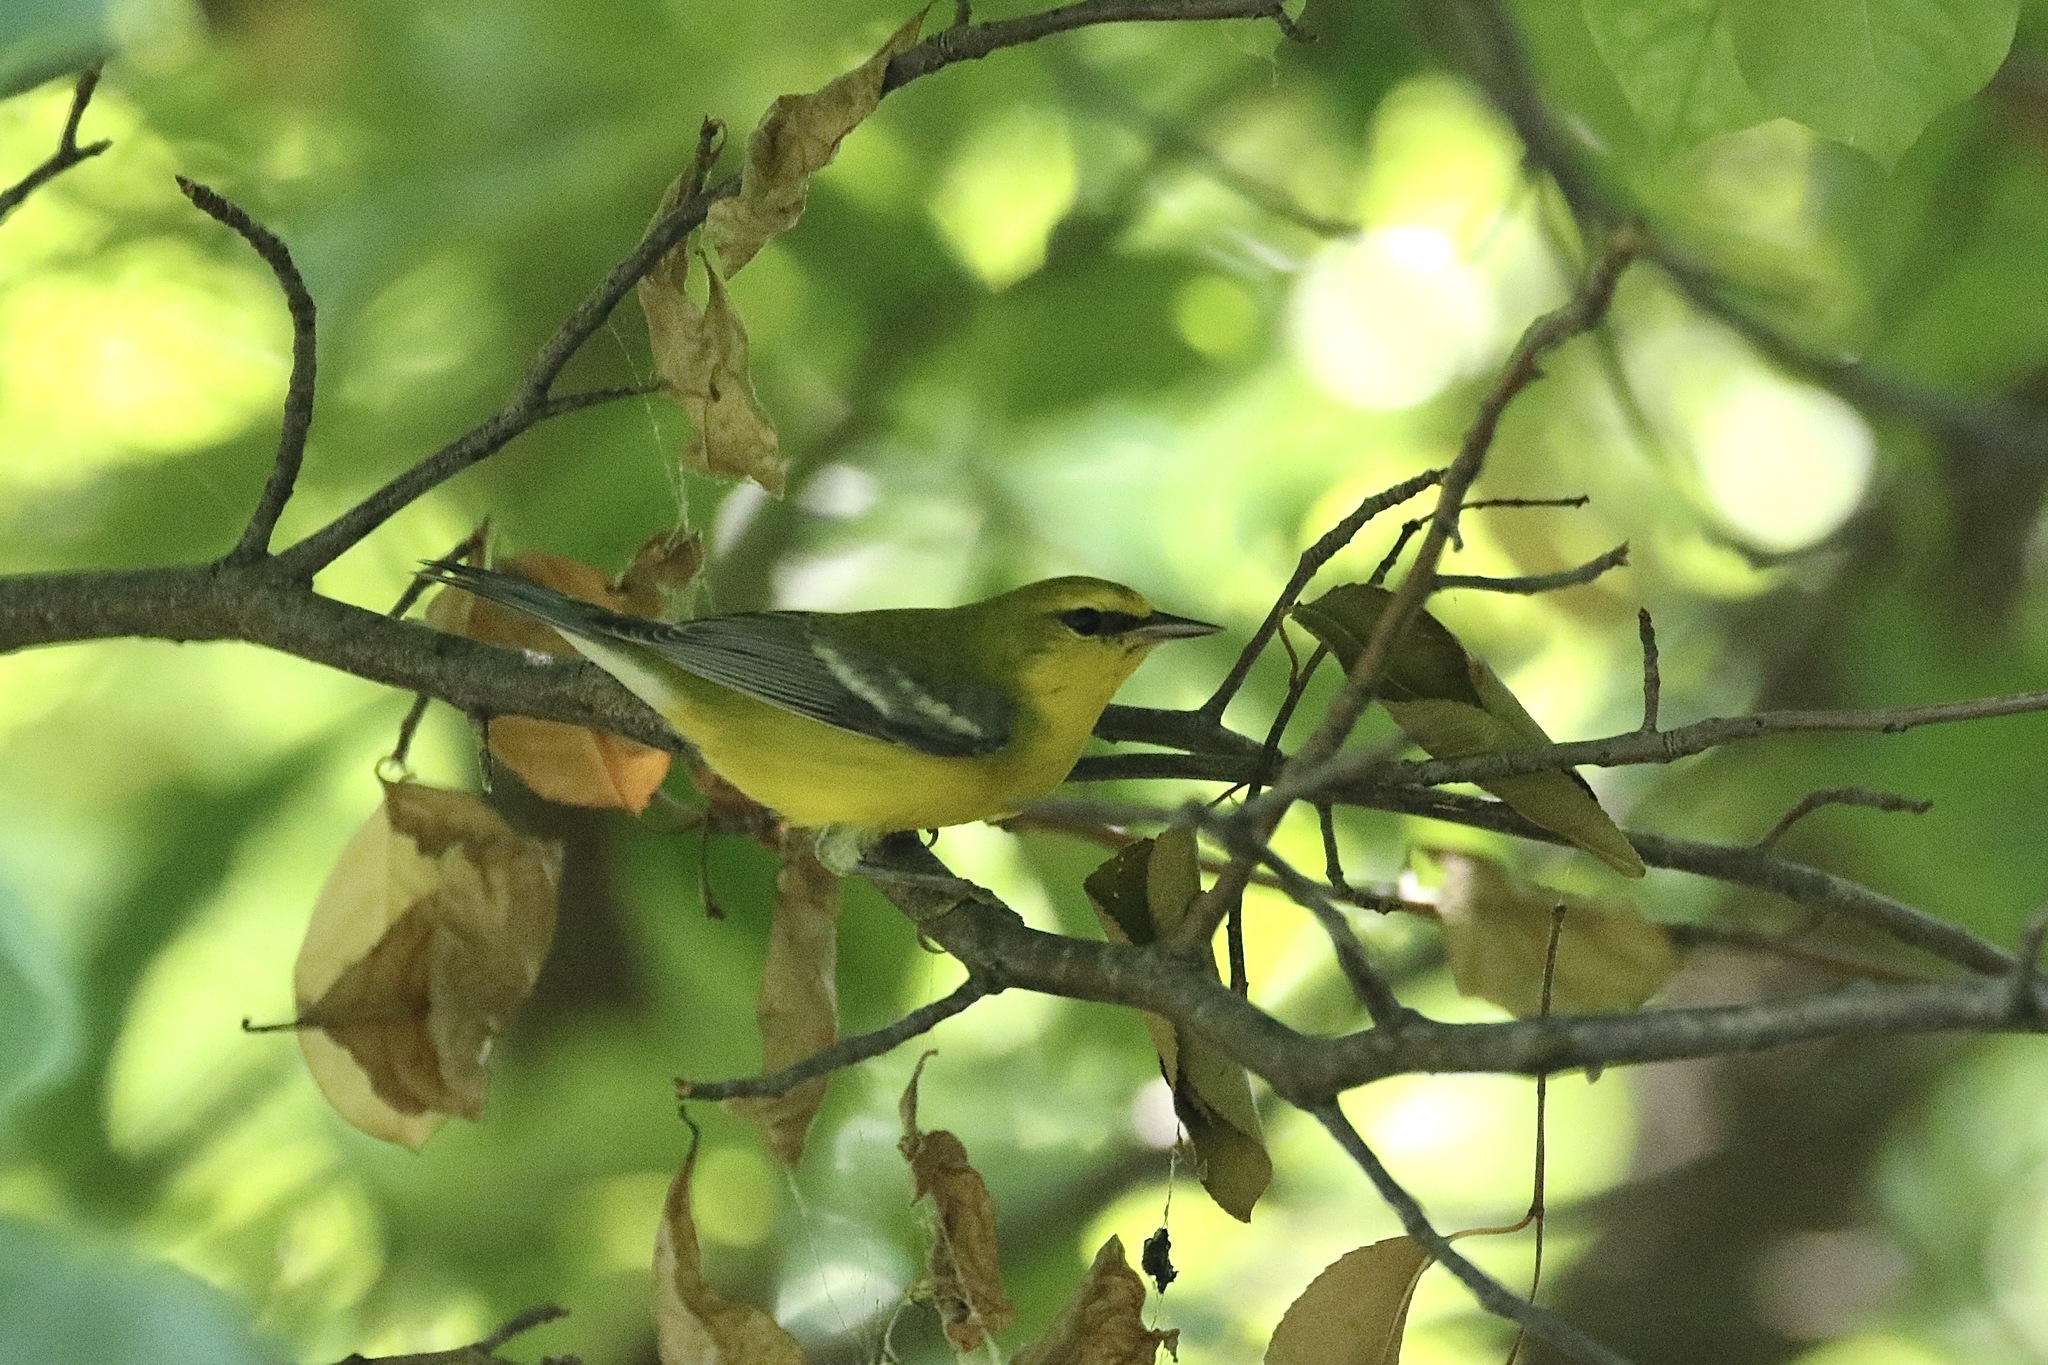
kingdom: Animalia
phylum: Chordata
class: Aves
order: Passeriformes
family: Parulidae
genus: Vermivora
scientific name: Vermivora cyanoptera
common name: Blue-winged warbler
